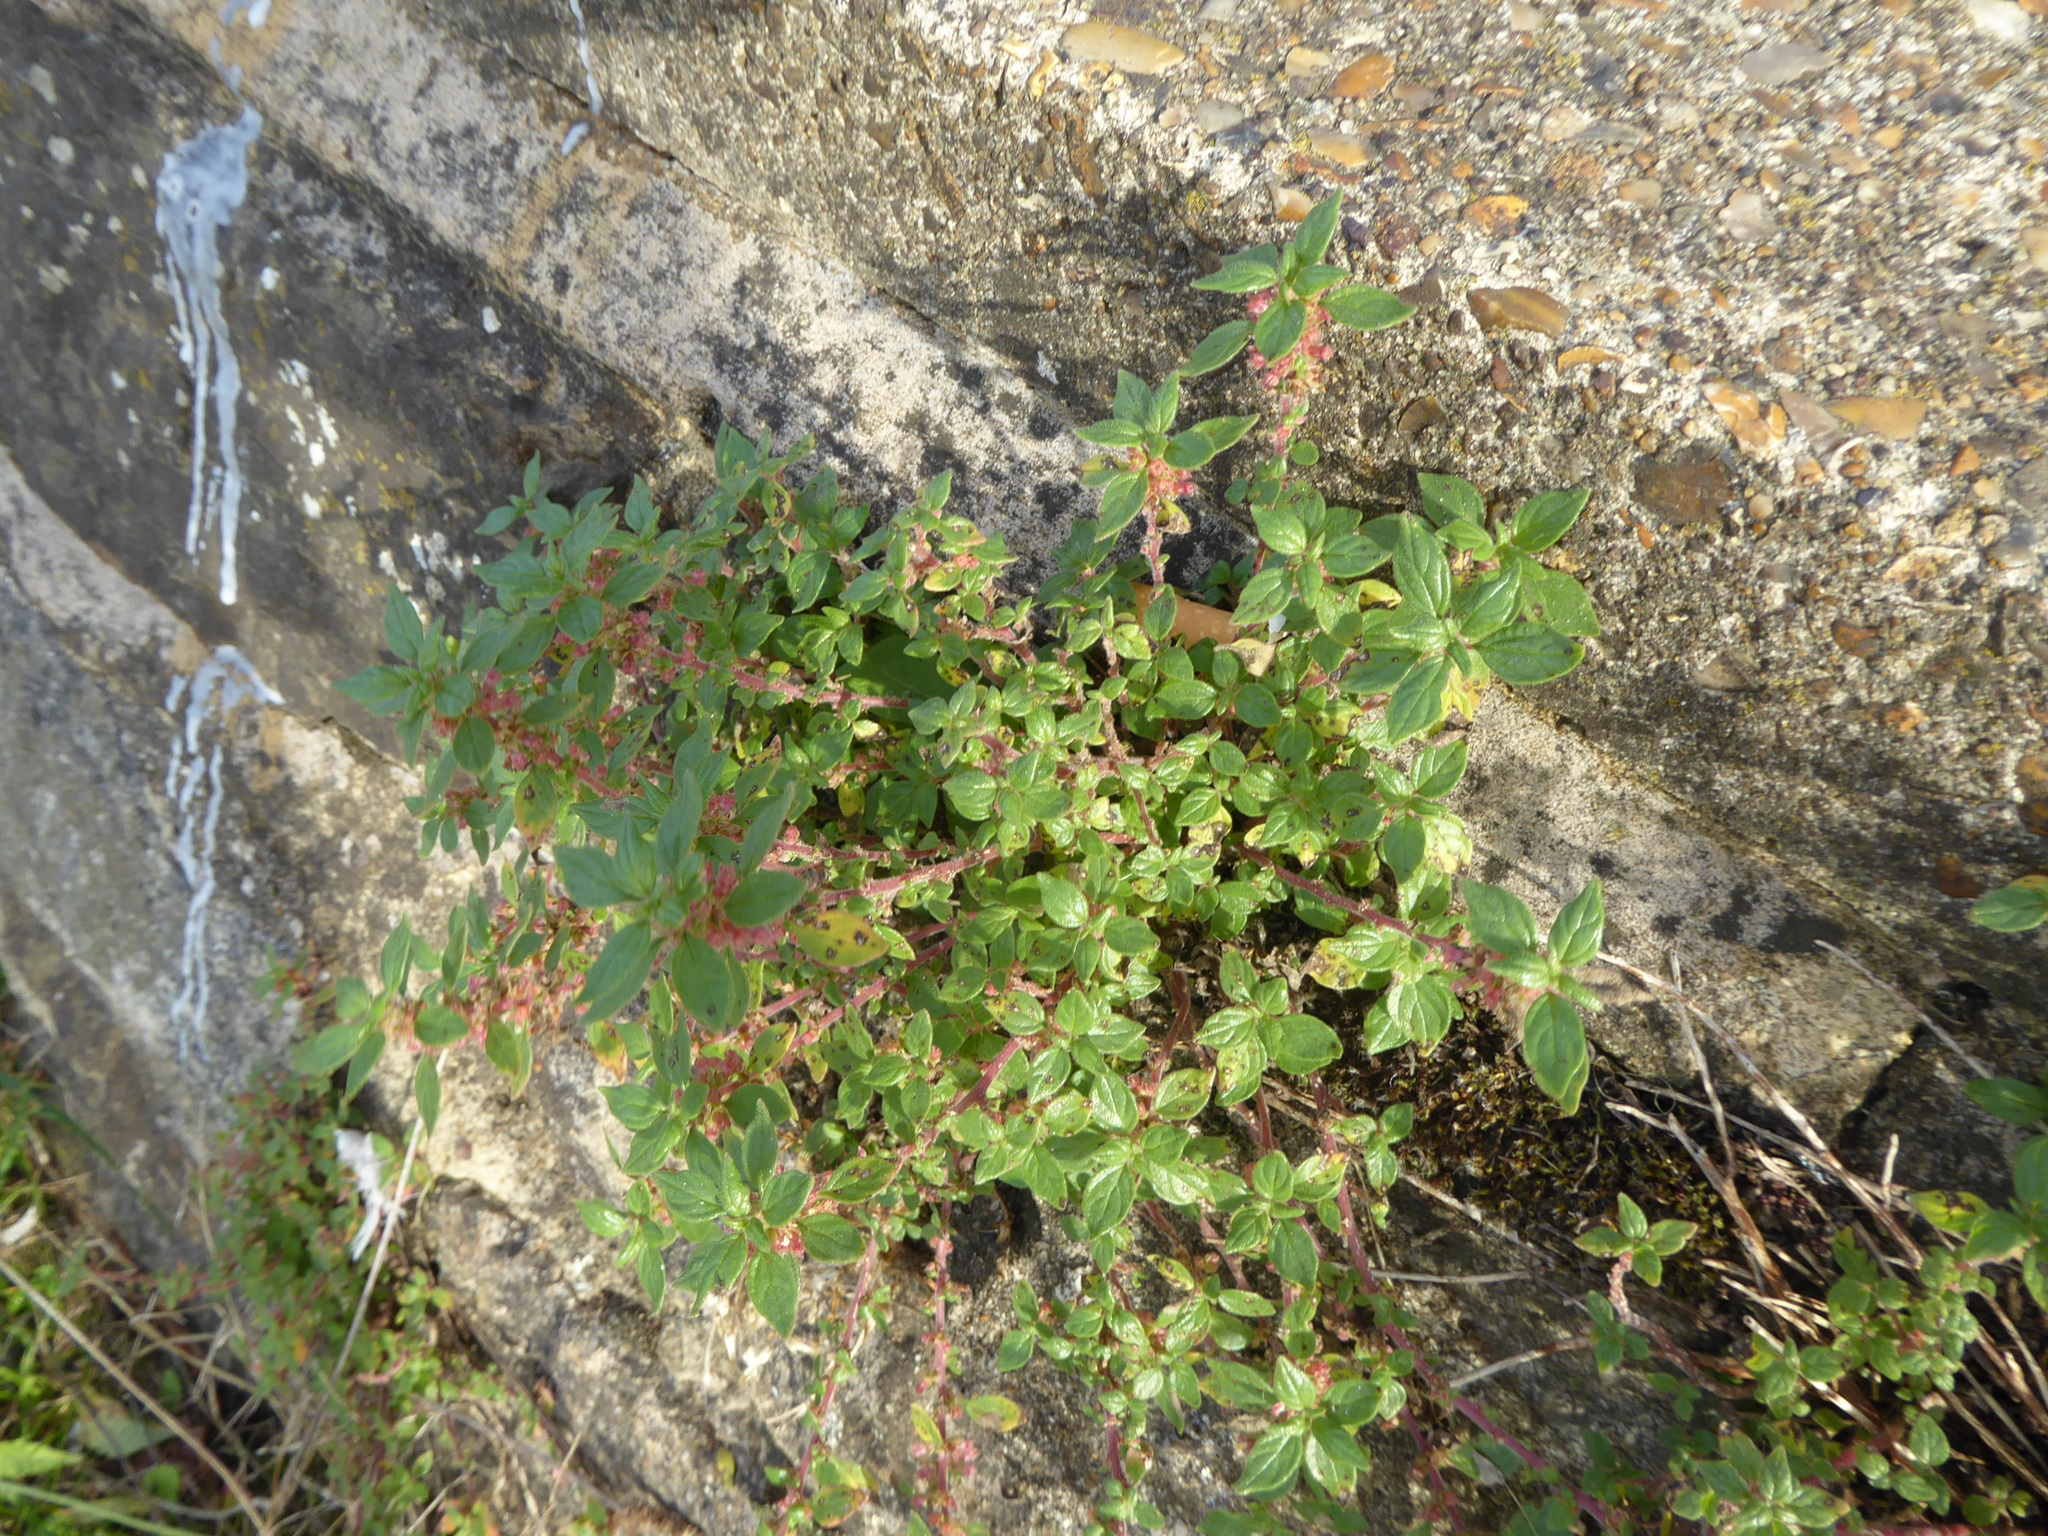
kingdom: Plantae
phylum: Tracheophyta
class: Magnoliopsida
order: Rosales
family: Urticaceae
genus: Parietaria
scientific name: Parietaria judaica
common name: Pellitory-of-the-wall
